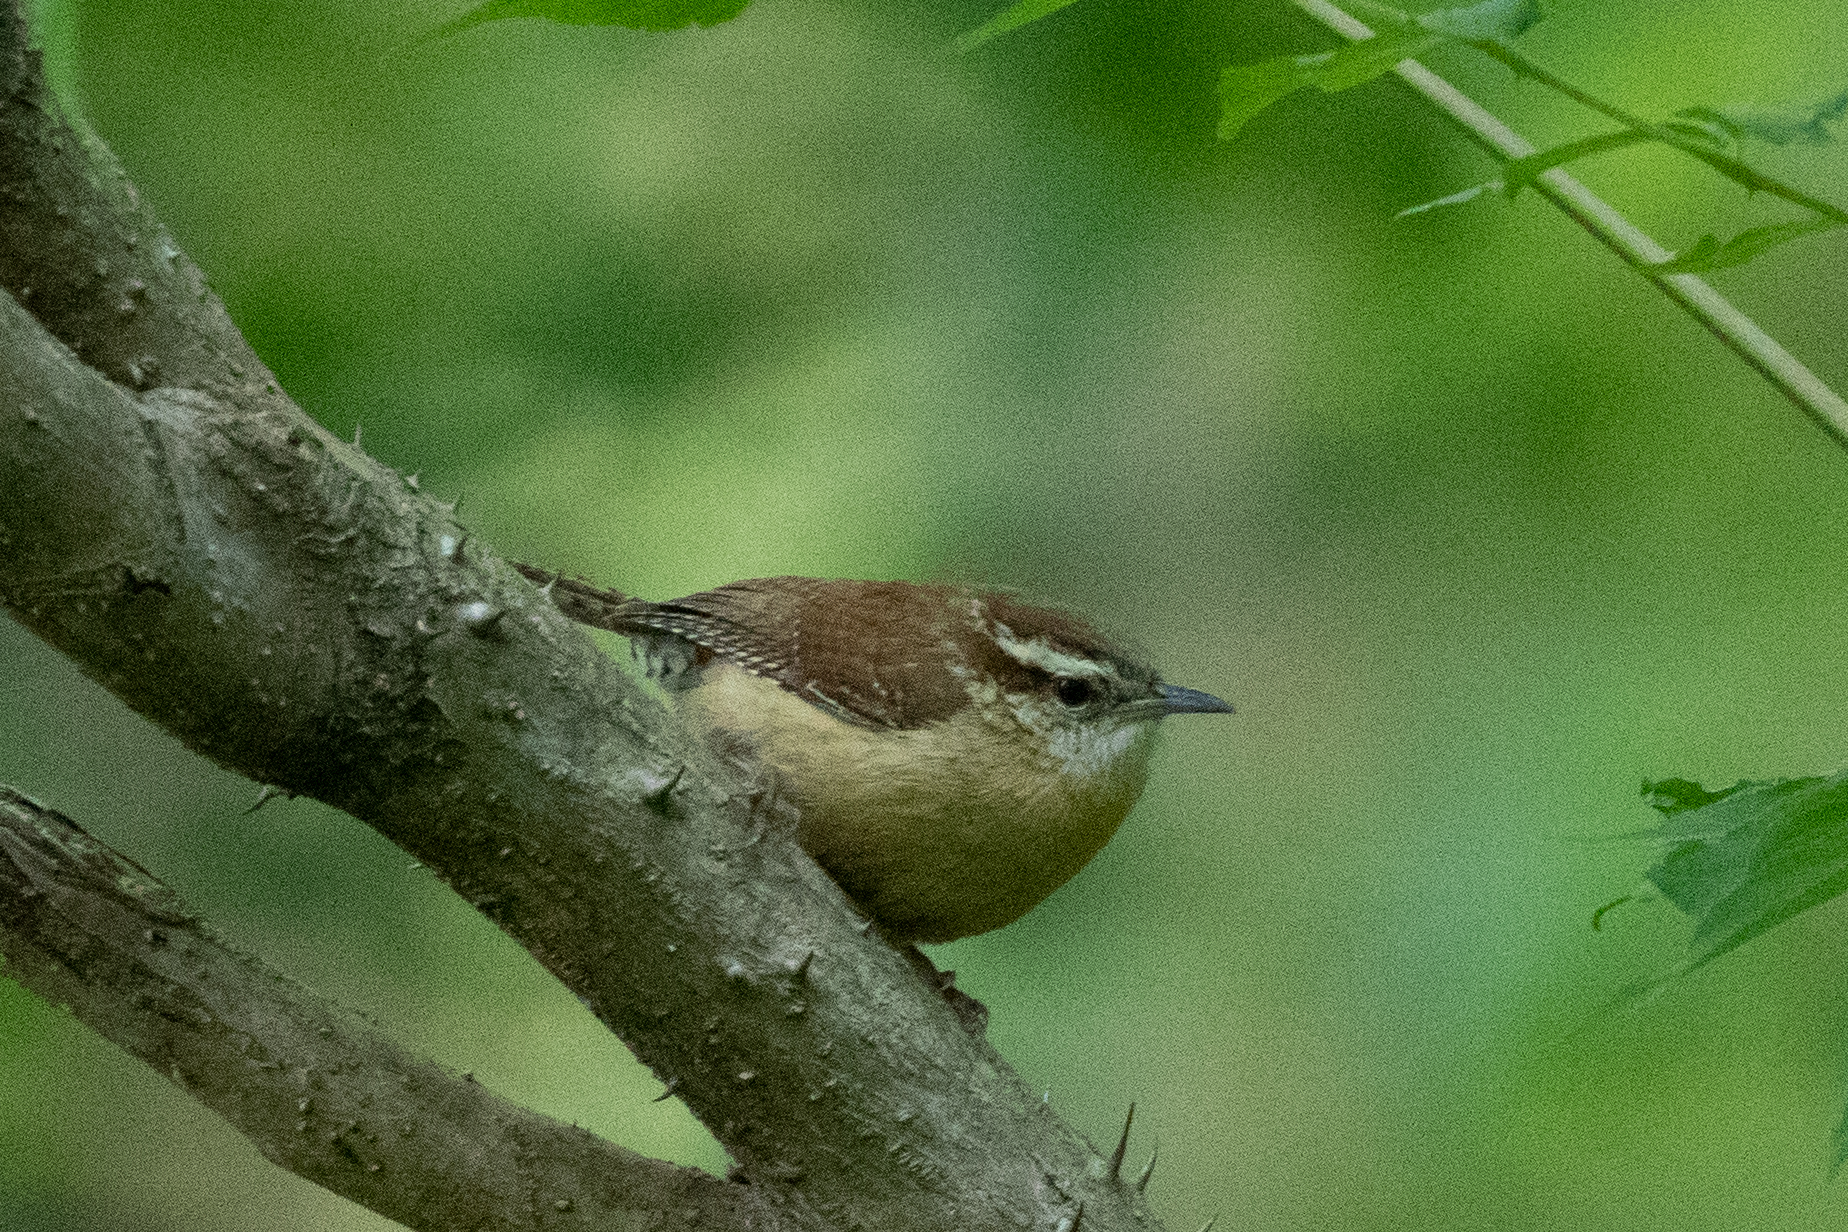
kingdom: Animalia
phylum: Chordata
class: Aves
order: Passeriformes
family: Troglodytidae
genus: Thryothorus
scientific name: Thryothorus ludovicianus
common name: Carolina wren
